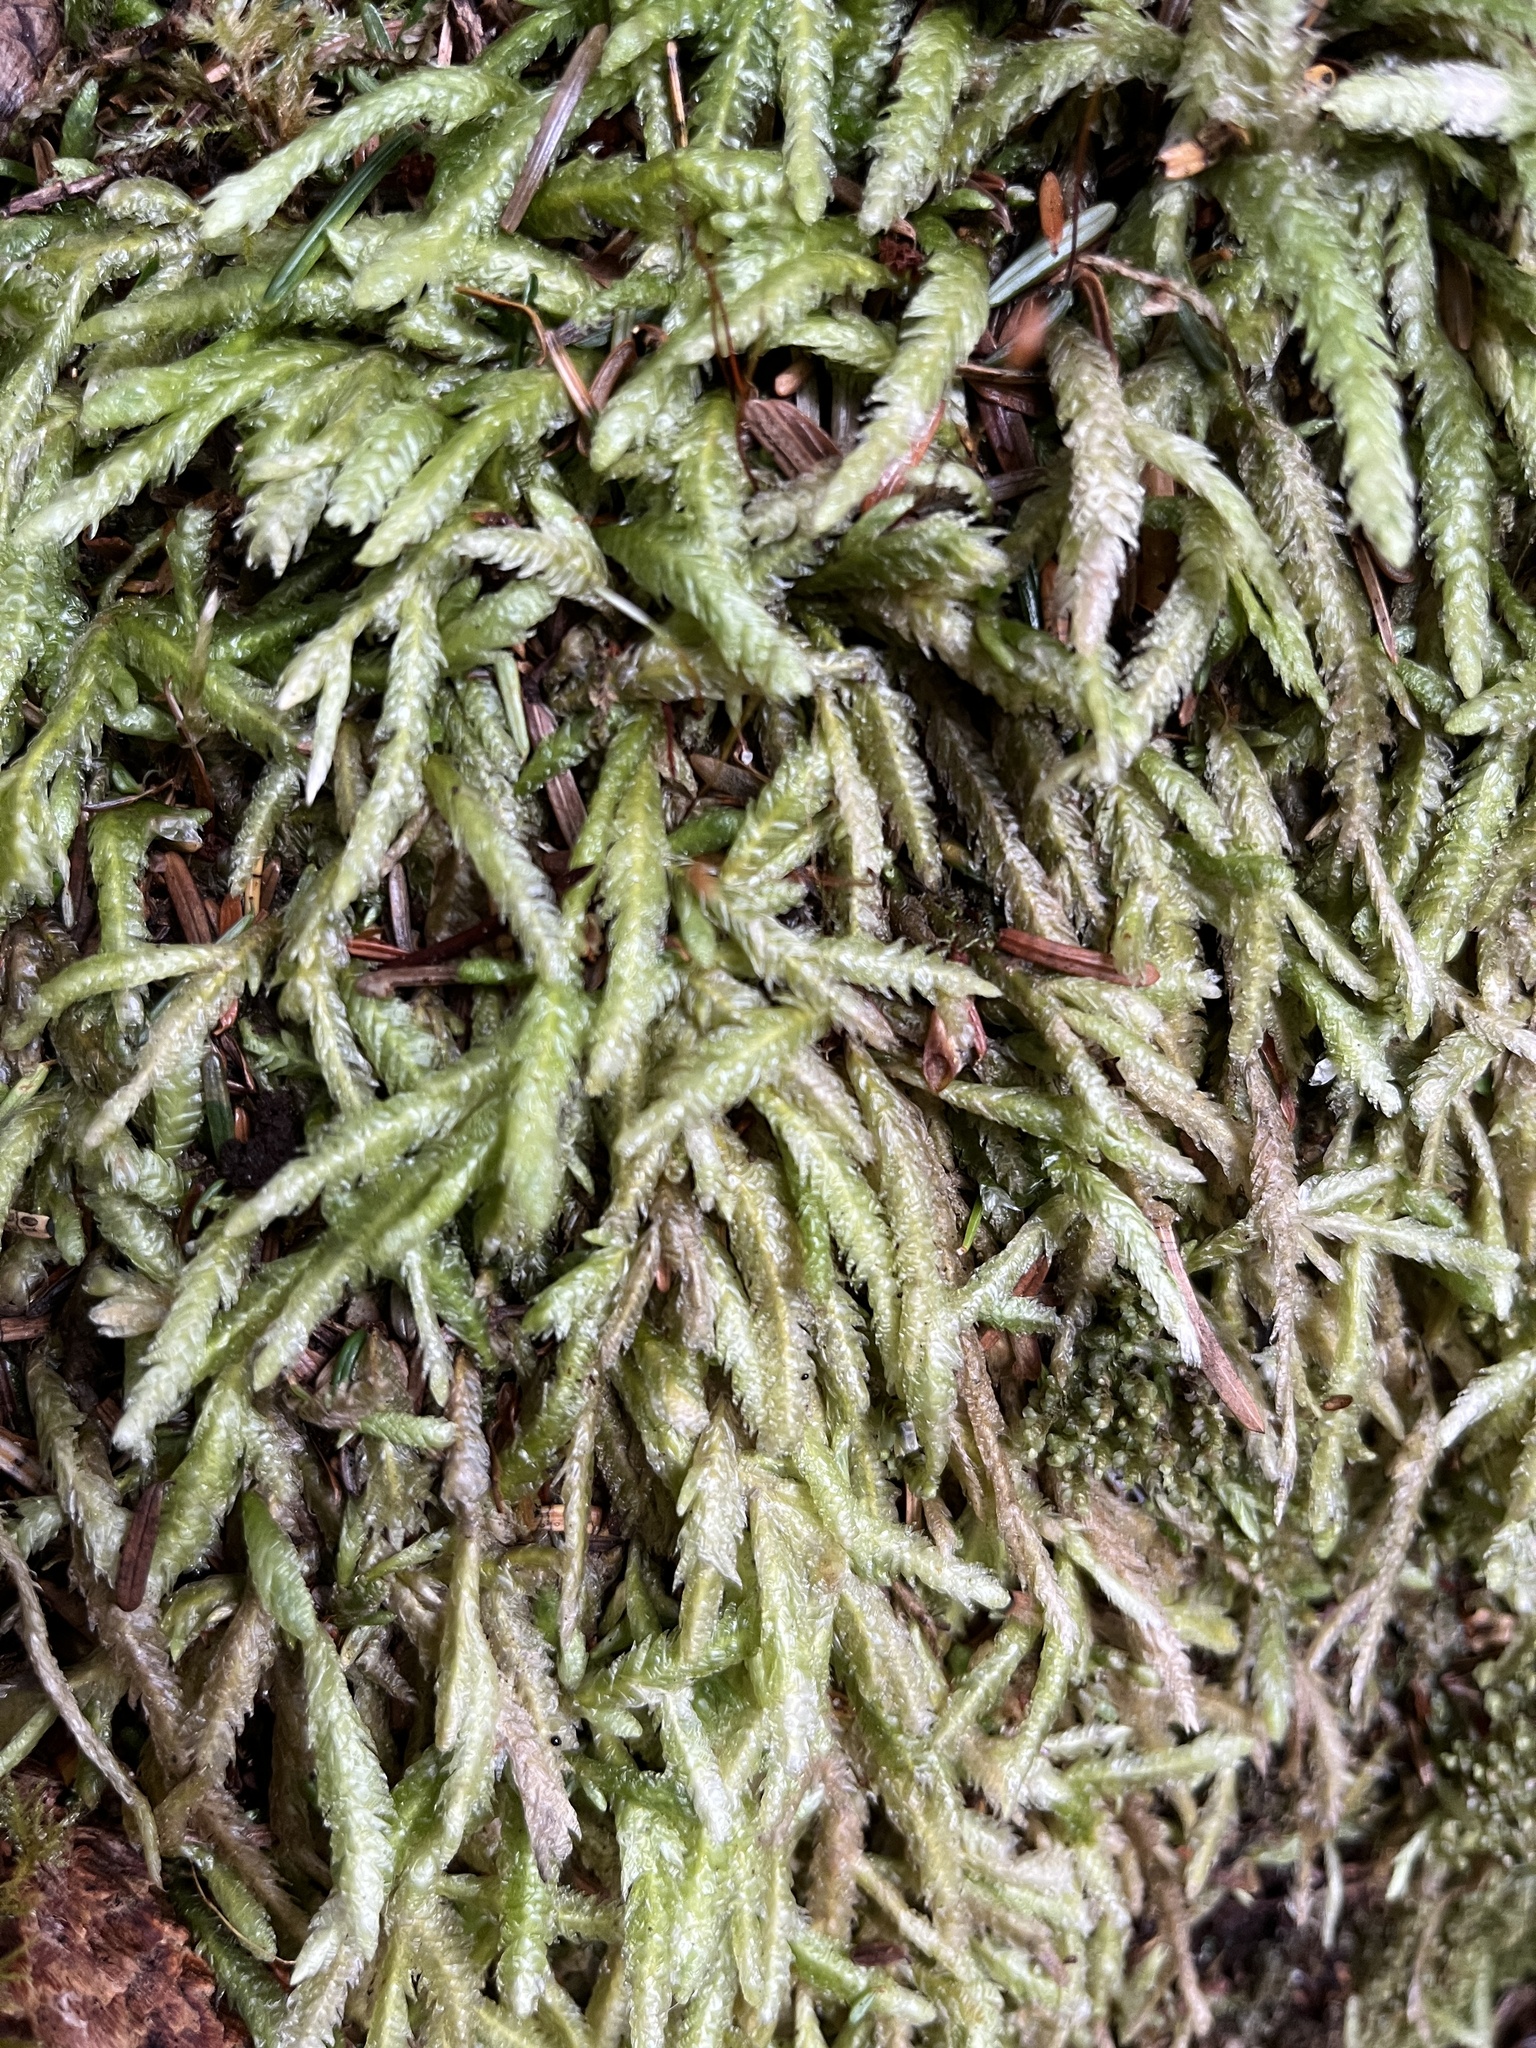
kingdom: Plantae
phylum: Bryophyta
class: Bryopsida
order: Hypnales
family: Plagiotheciaceae
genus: Plagiothecium
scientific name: Plagiothecium undulatum
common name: Waved silk-moss
